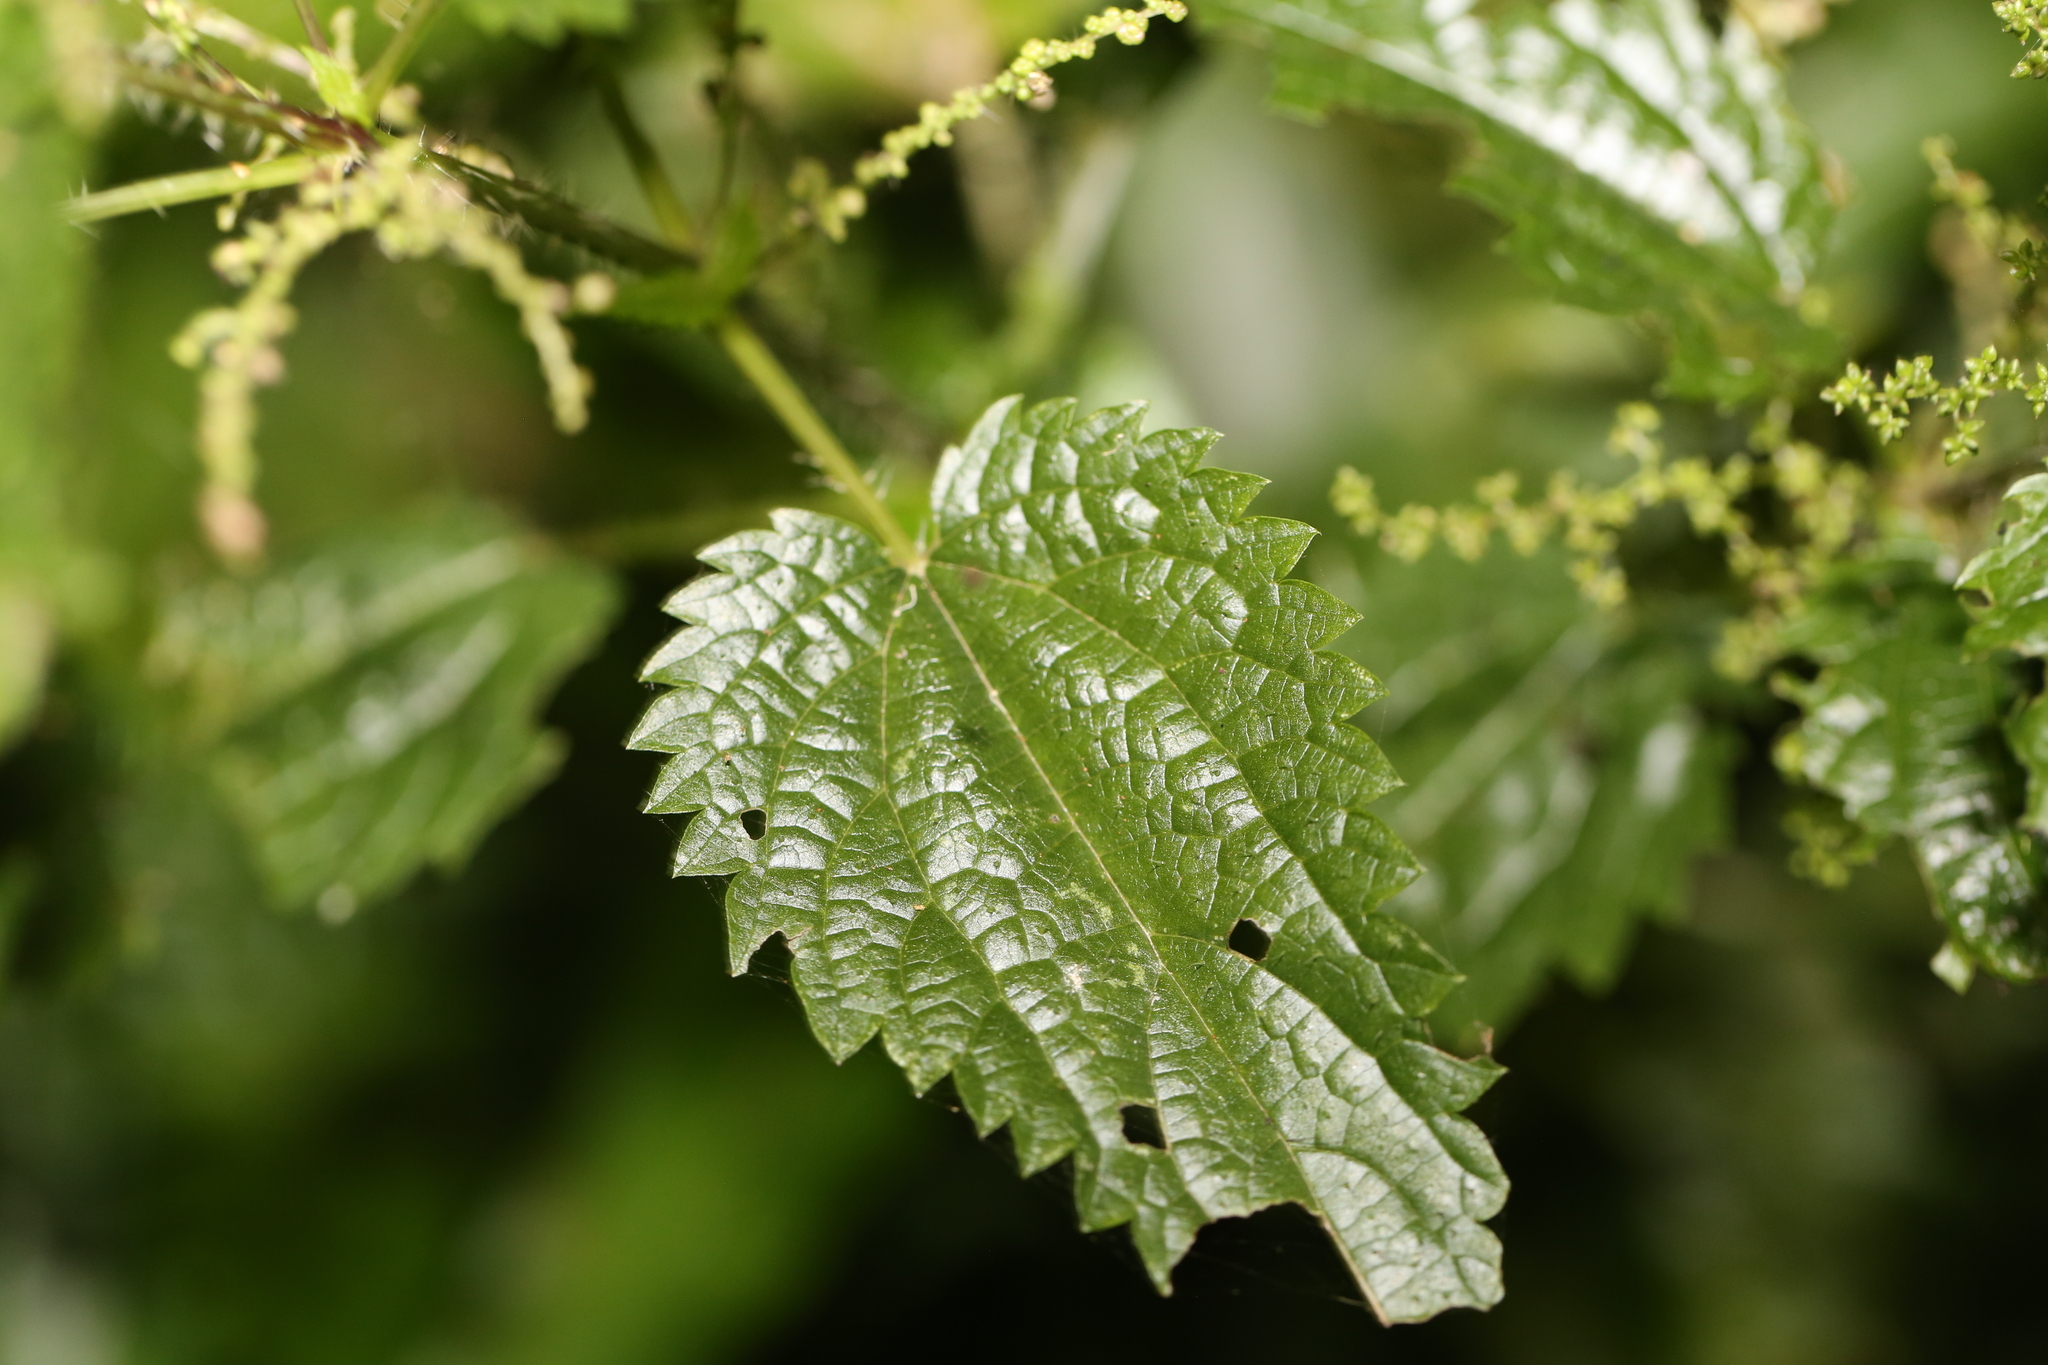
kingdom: Plantae
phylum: Tracheophyta
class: Magnoliopsida
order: Rosales
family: Urticaceae
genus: Urtica
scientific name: Urtica incisa
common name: Scrub nettle
